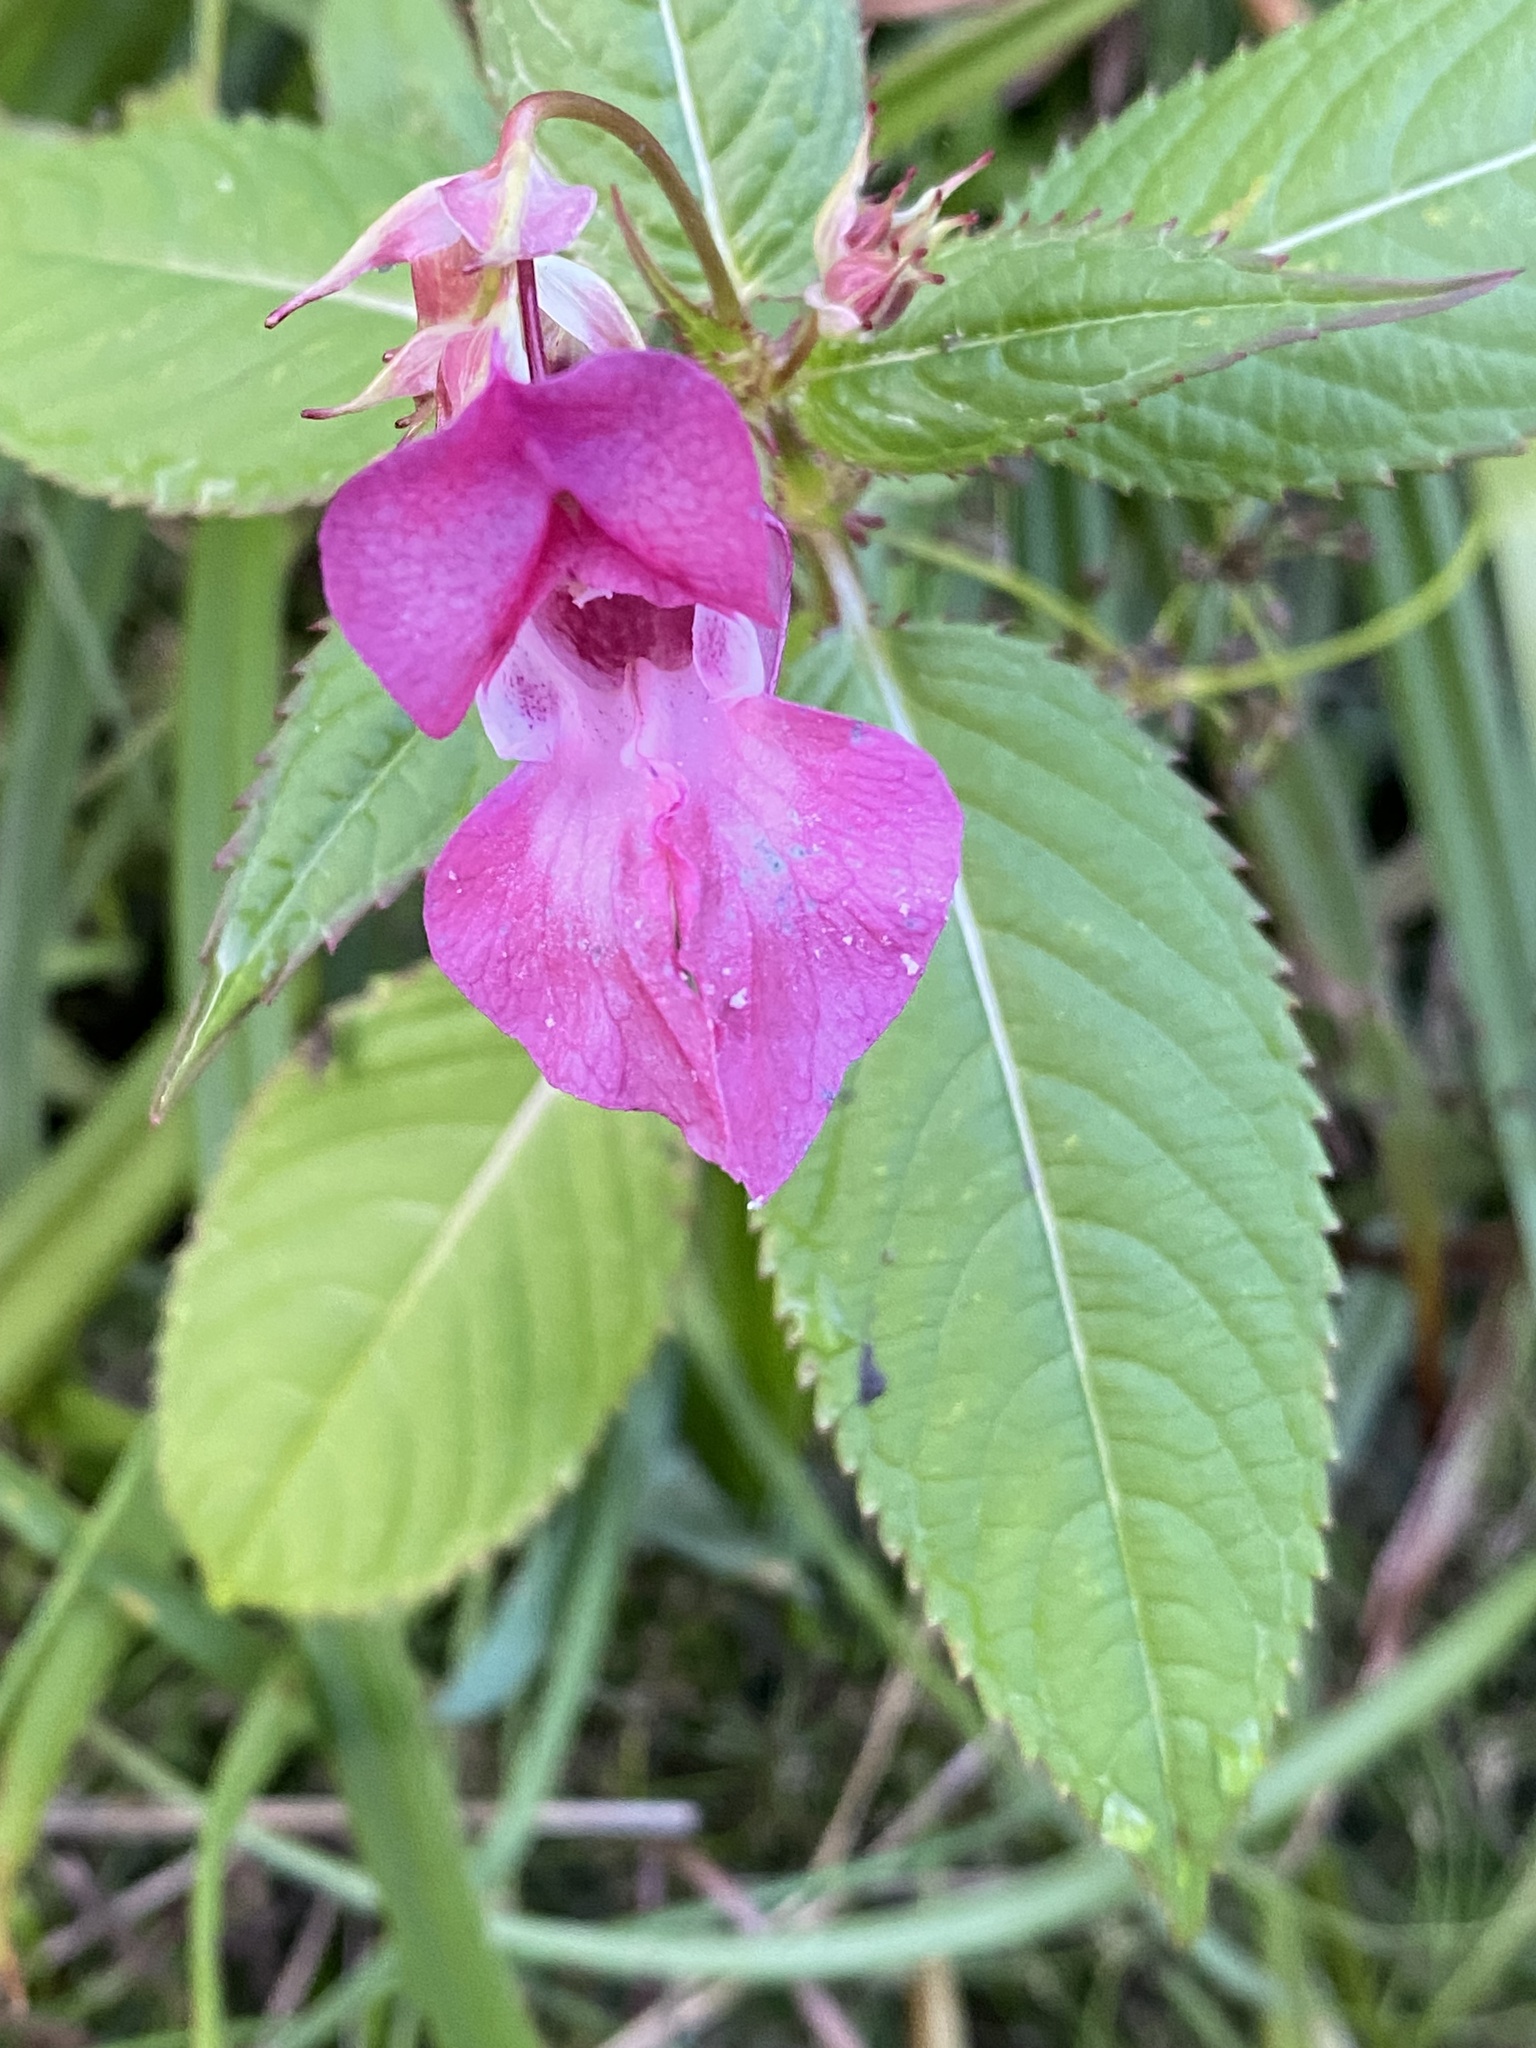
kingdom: Plantae
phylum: Tracheophyta
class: Magnoliopsida
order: Ericales
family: Balsaminaceae
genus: Impatiens
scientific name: Impatiens glandulifera
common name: Himalayan balsam
